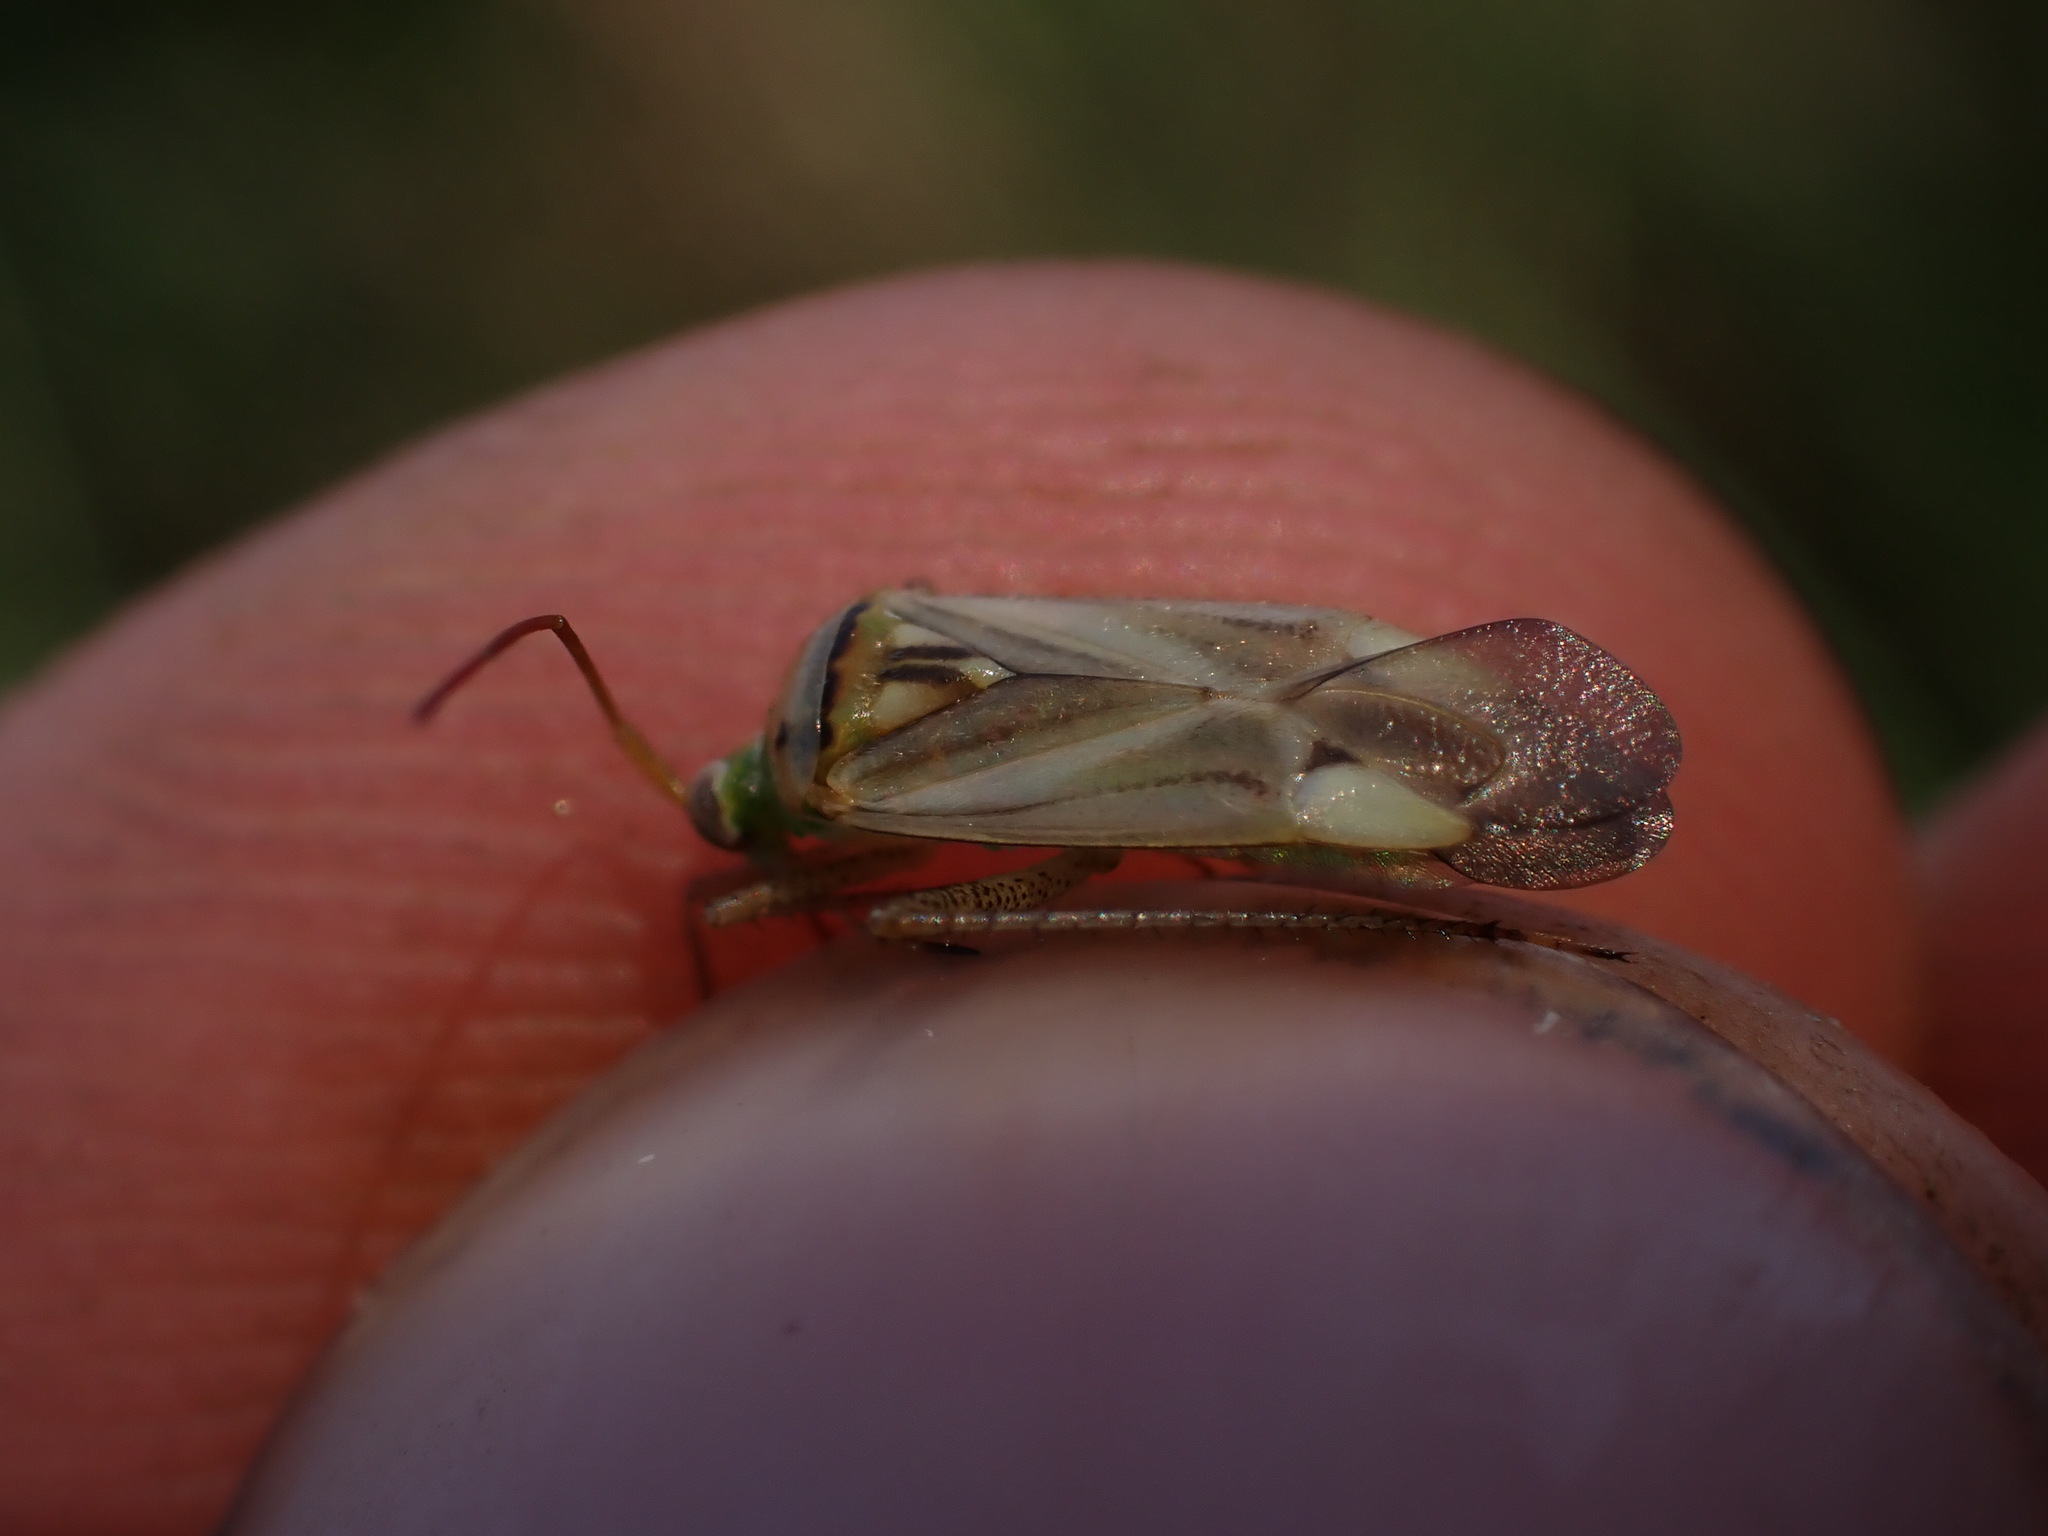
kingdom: Animalia
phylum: Arthropoda
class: Insecta
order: Hemiptera
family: Miridae
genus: Adelphocoris
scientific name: Adelphocoris lineolatus
